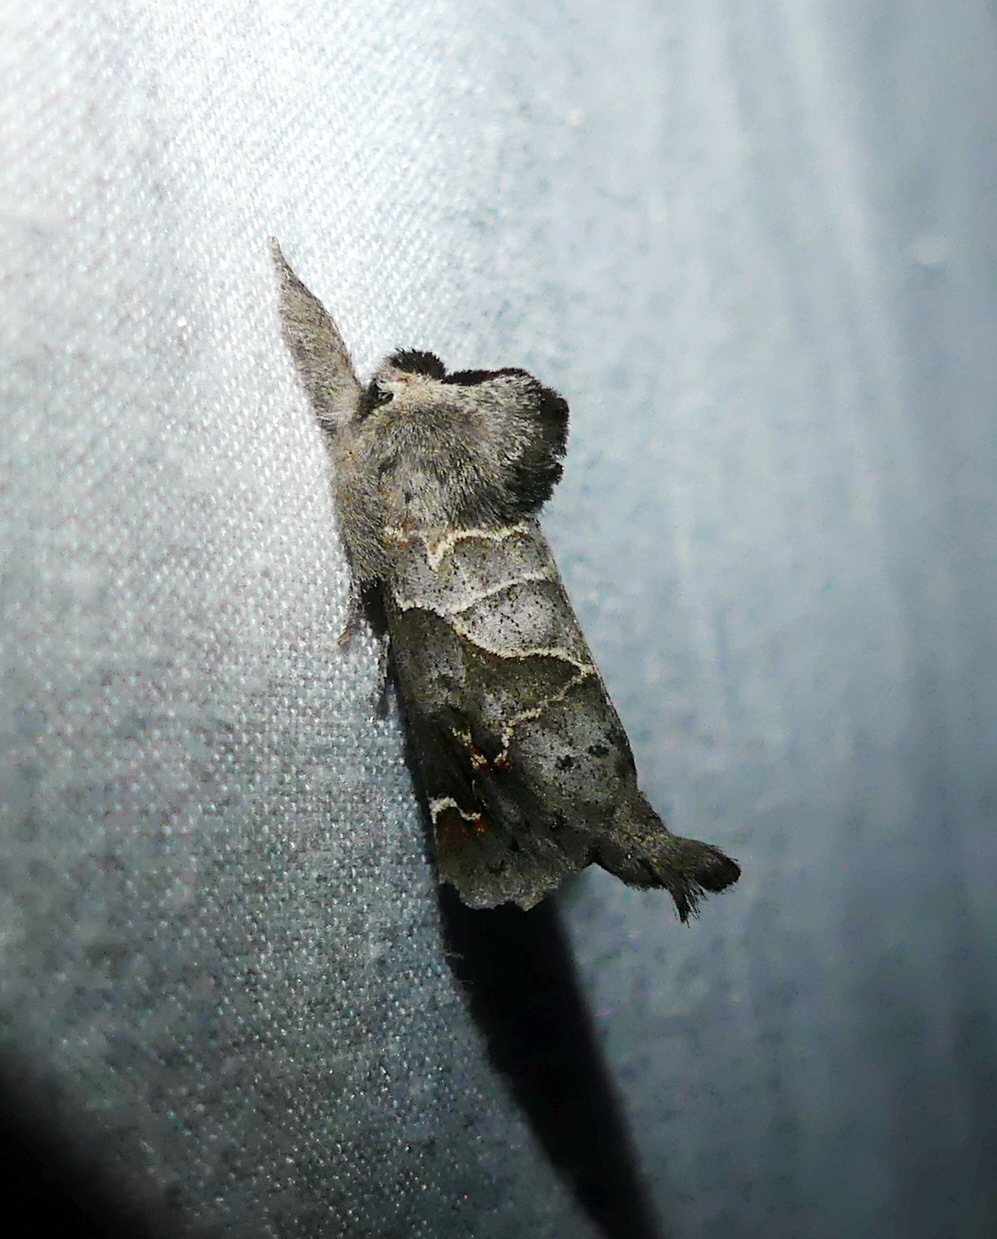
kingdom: Animalia
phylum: Arthropoda
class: Insecta
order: Lepidoptera
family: Notodontidae
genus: Clostera
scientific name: Clostera apicalis
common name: Apical prominent
